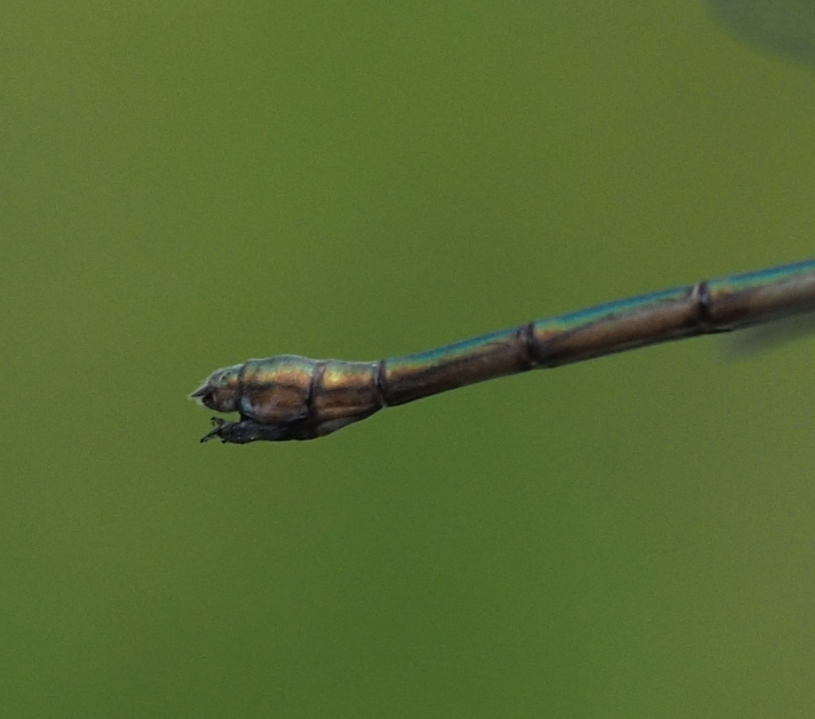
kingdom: Animalia
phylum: Arthropoda
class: Insecta
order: Odonata
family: Lestidae
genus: Chalcolestes
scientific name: Chalcolestes viridis
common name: Green emerald damselfly
